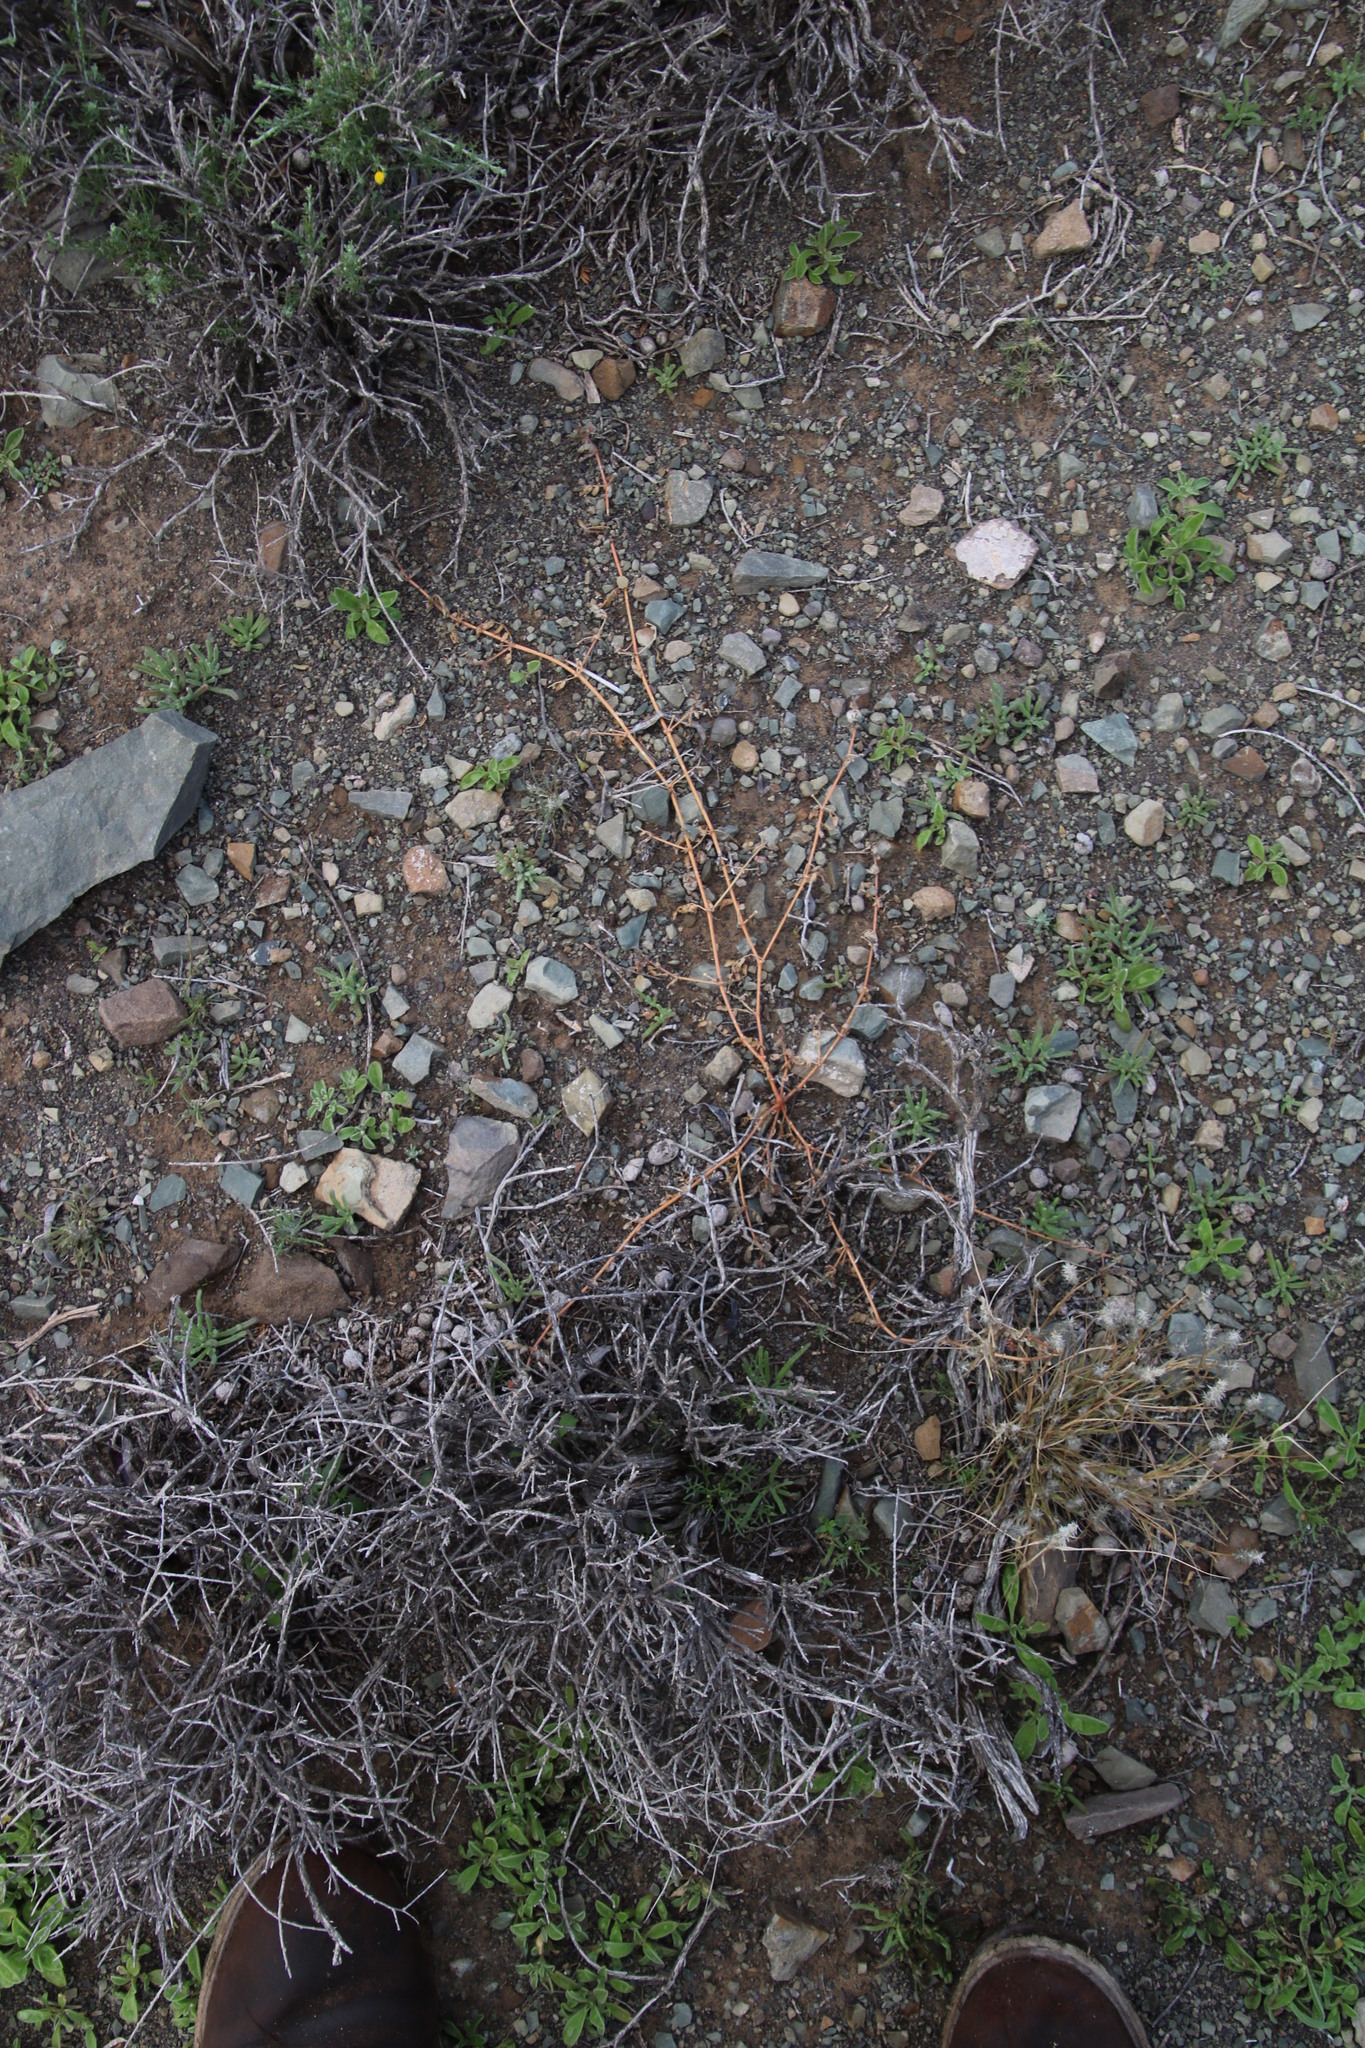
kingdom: Plantae
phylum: Tracheophyta
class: Magnoliopsida
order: Zygophyllales
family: Zygophyllaceae
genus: Tribulus
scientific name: Tribulus terrestris
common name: Puncturevine
